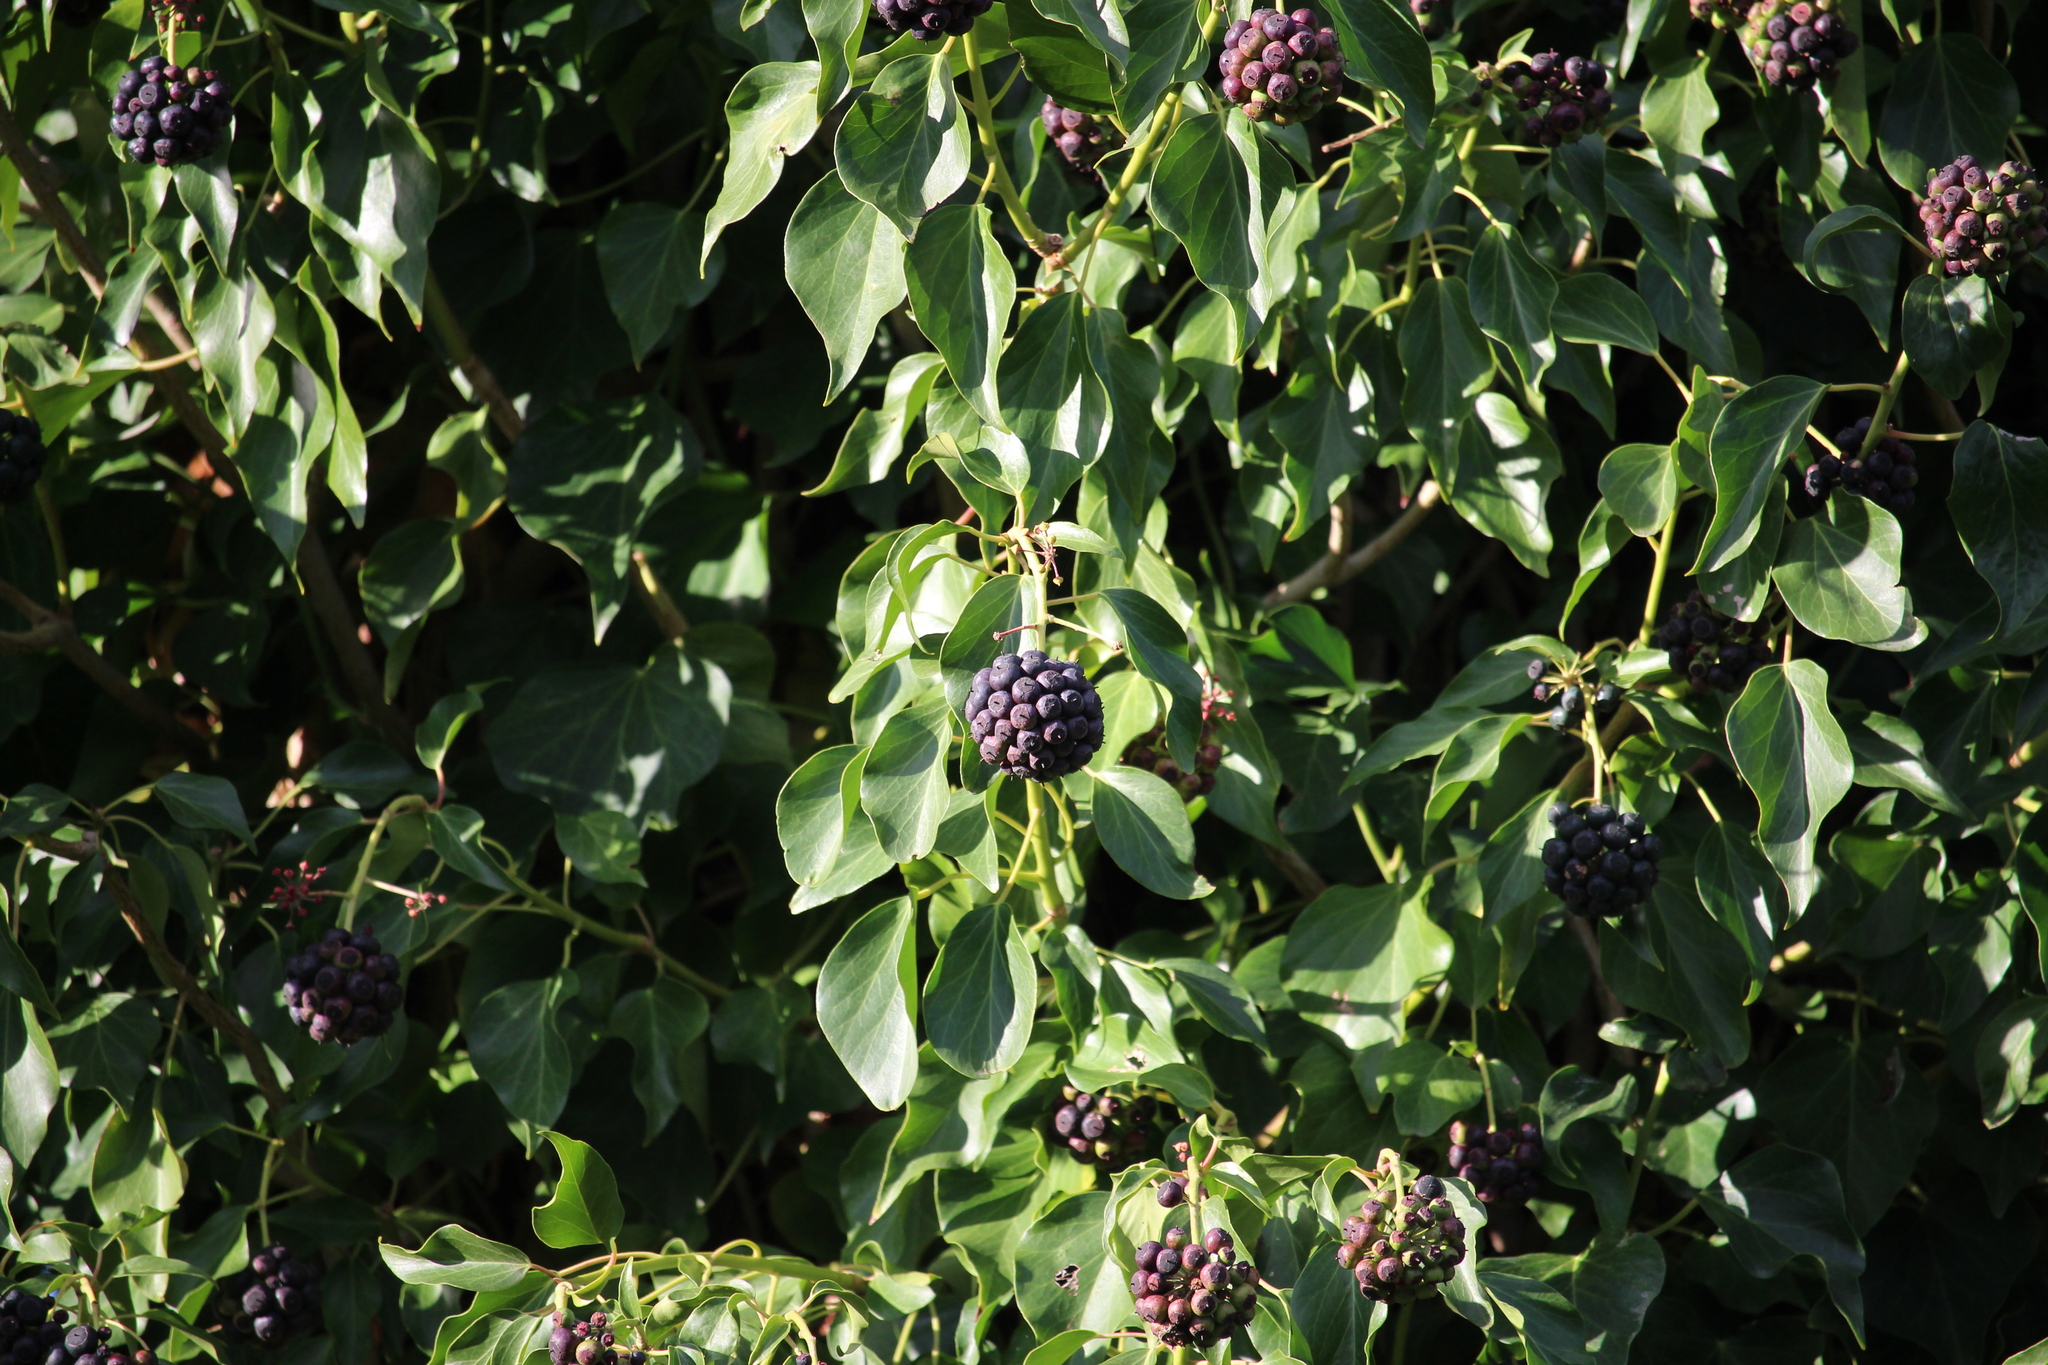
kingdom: Plantae
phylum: Tracheophyta
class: Magnoliopsida
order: Apiales
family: Araliaceae
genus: Hedera
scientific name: Hedera helix
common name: Ivy
